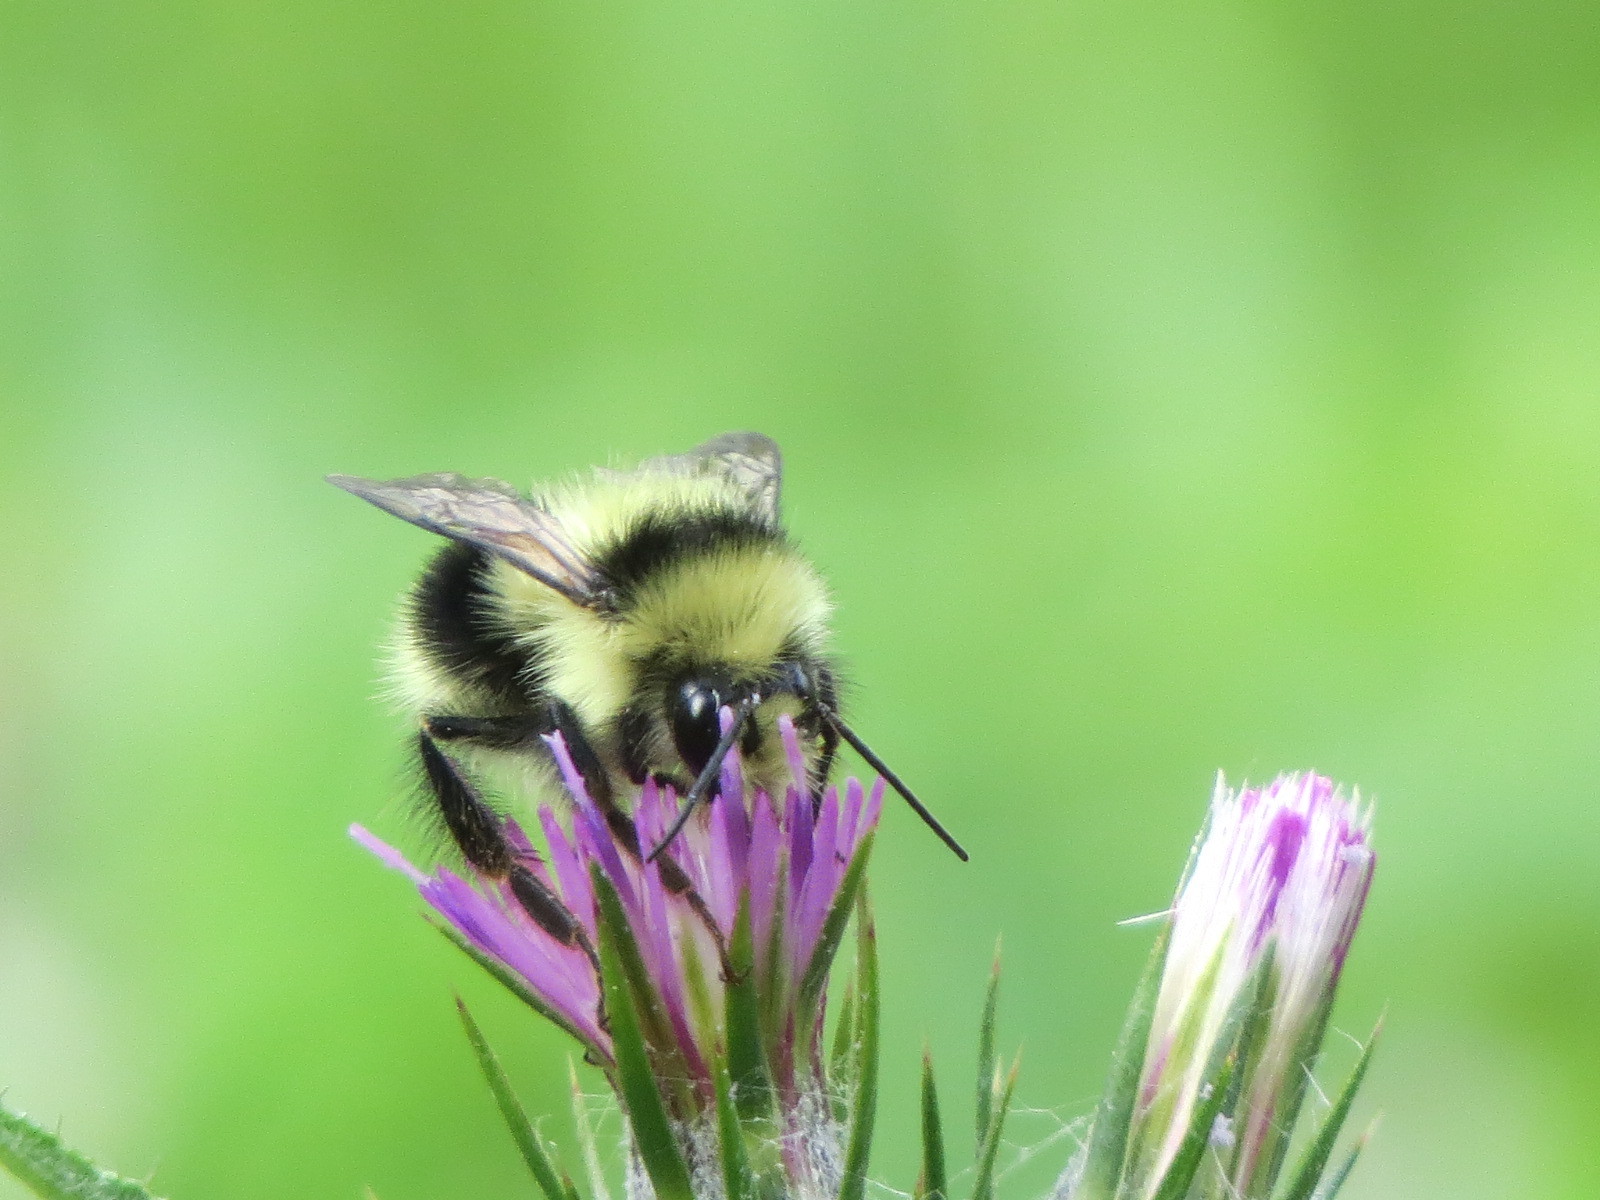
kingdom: Animalia
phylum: Arthropoda
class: Insecta
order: Hymenoptera
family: Apidae
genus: Bombus
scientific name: Bombus melanopygus
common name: Black tail bumble bee
